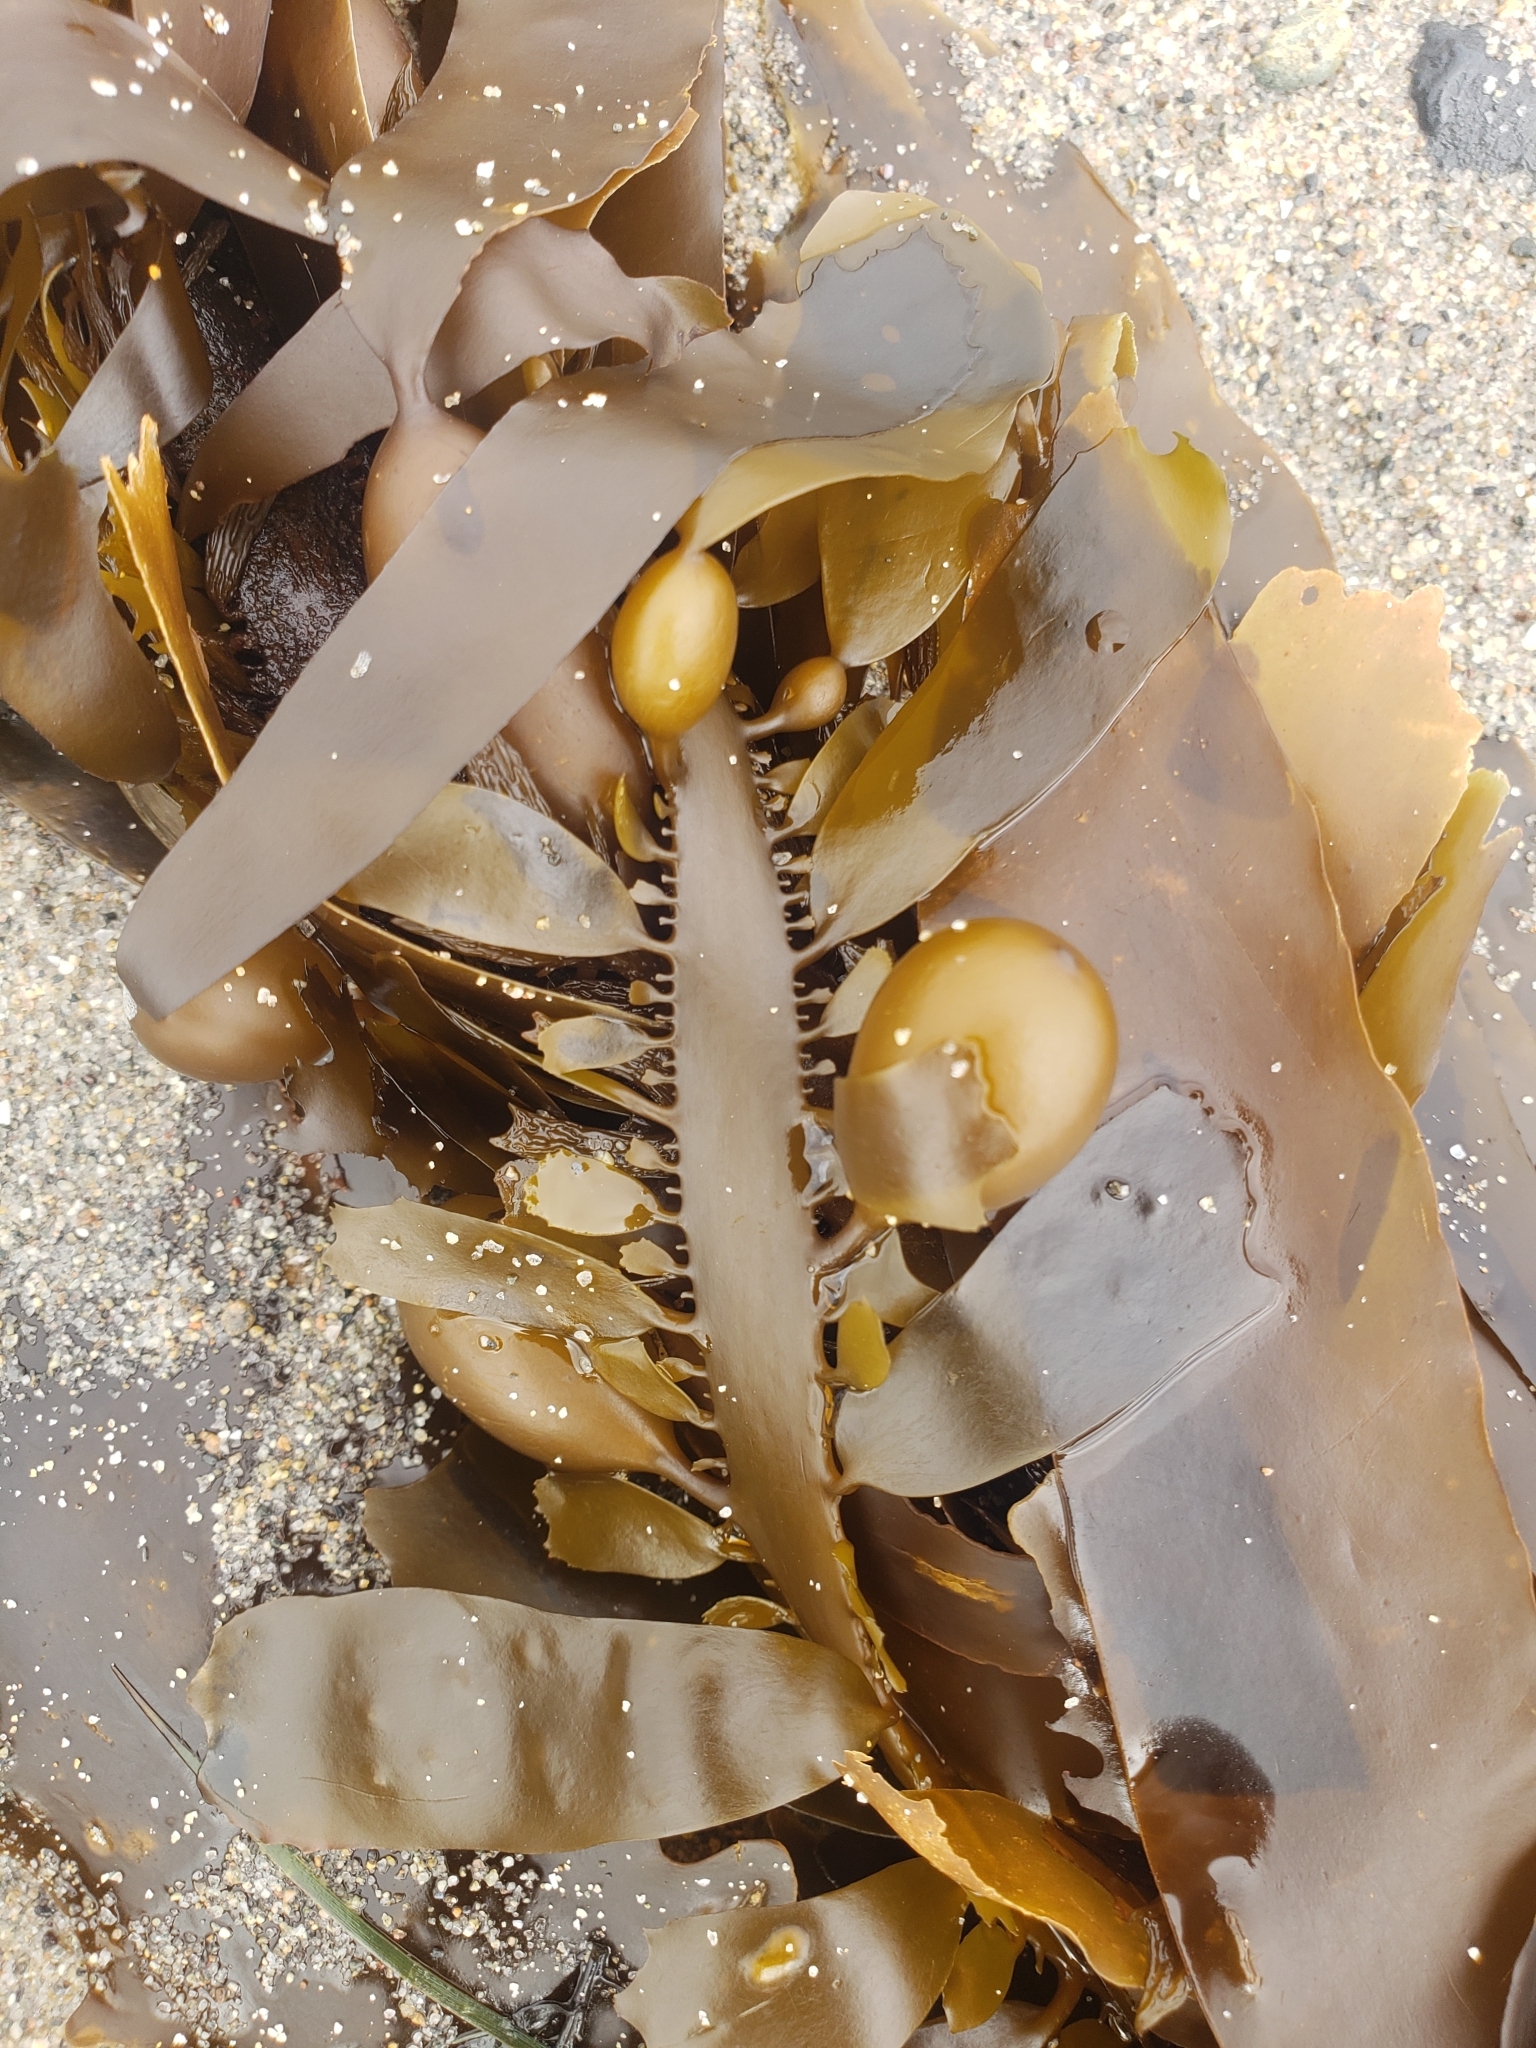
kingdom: Chromista
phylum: Ochrophyta
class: Phaeophyceae
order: Laminariales
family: Lessoniaceae
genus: Egregia
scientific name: Egregia menziesii
